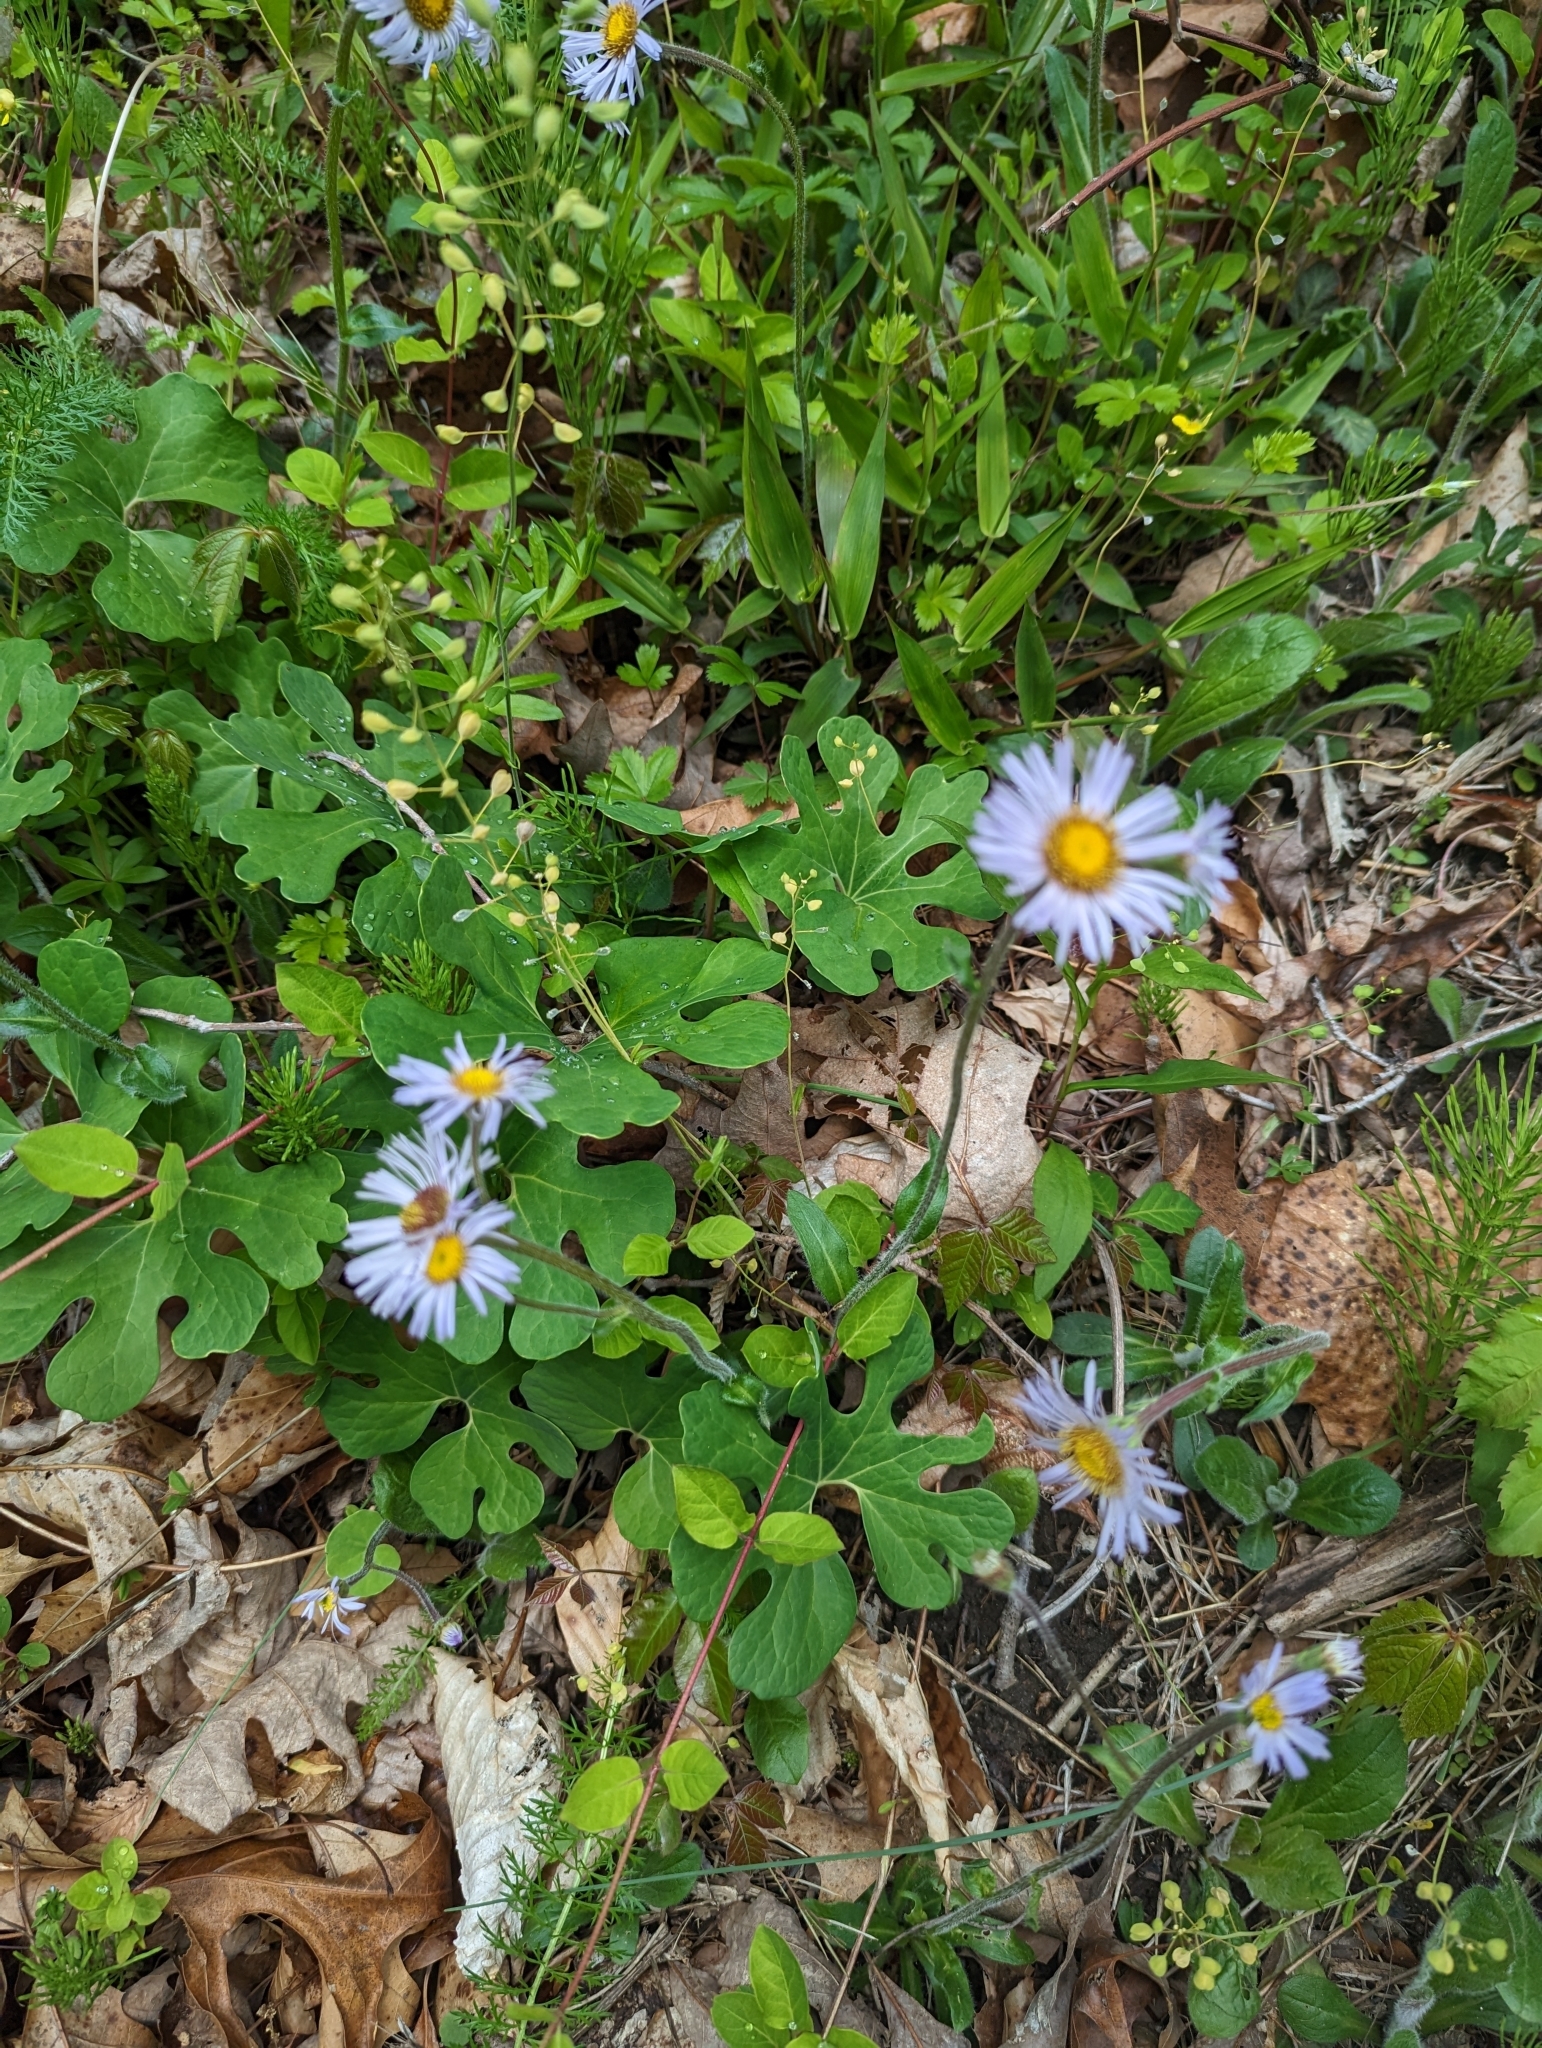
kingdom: Plantae
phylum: Tracheophyta
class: Magnoliopsida
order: Asterales
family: Asteraceae
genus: Erigeron
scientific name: Erigeron pulchellus
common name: Hairy fleabane
